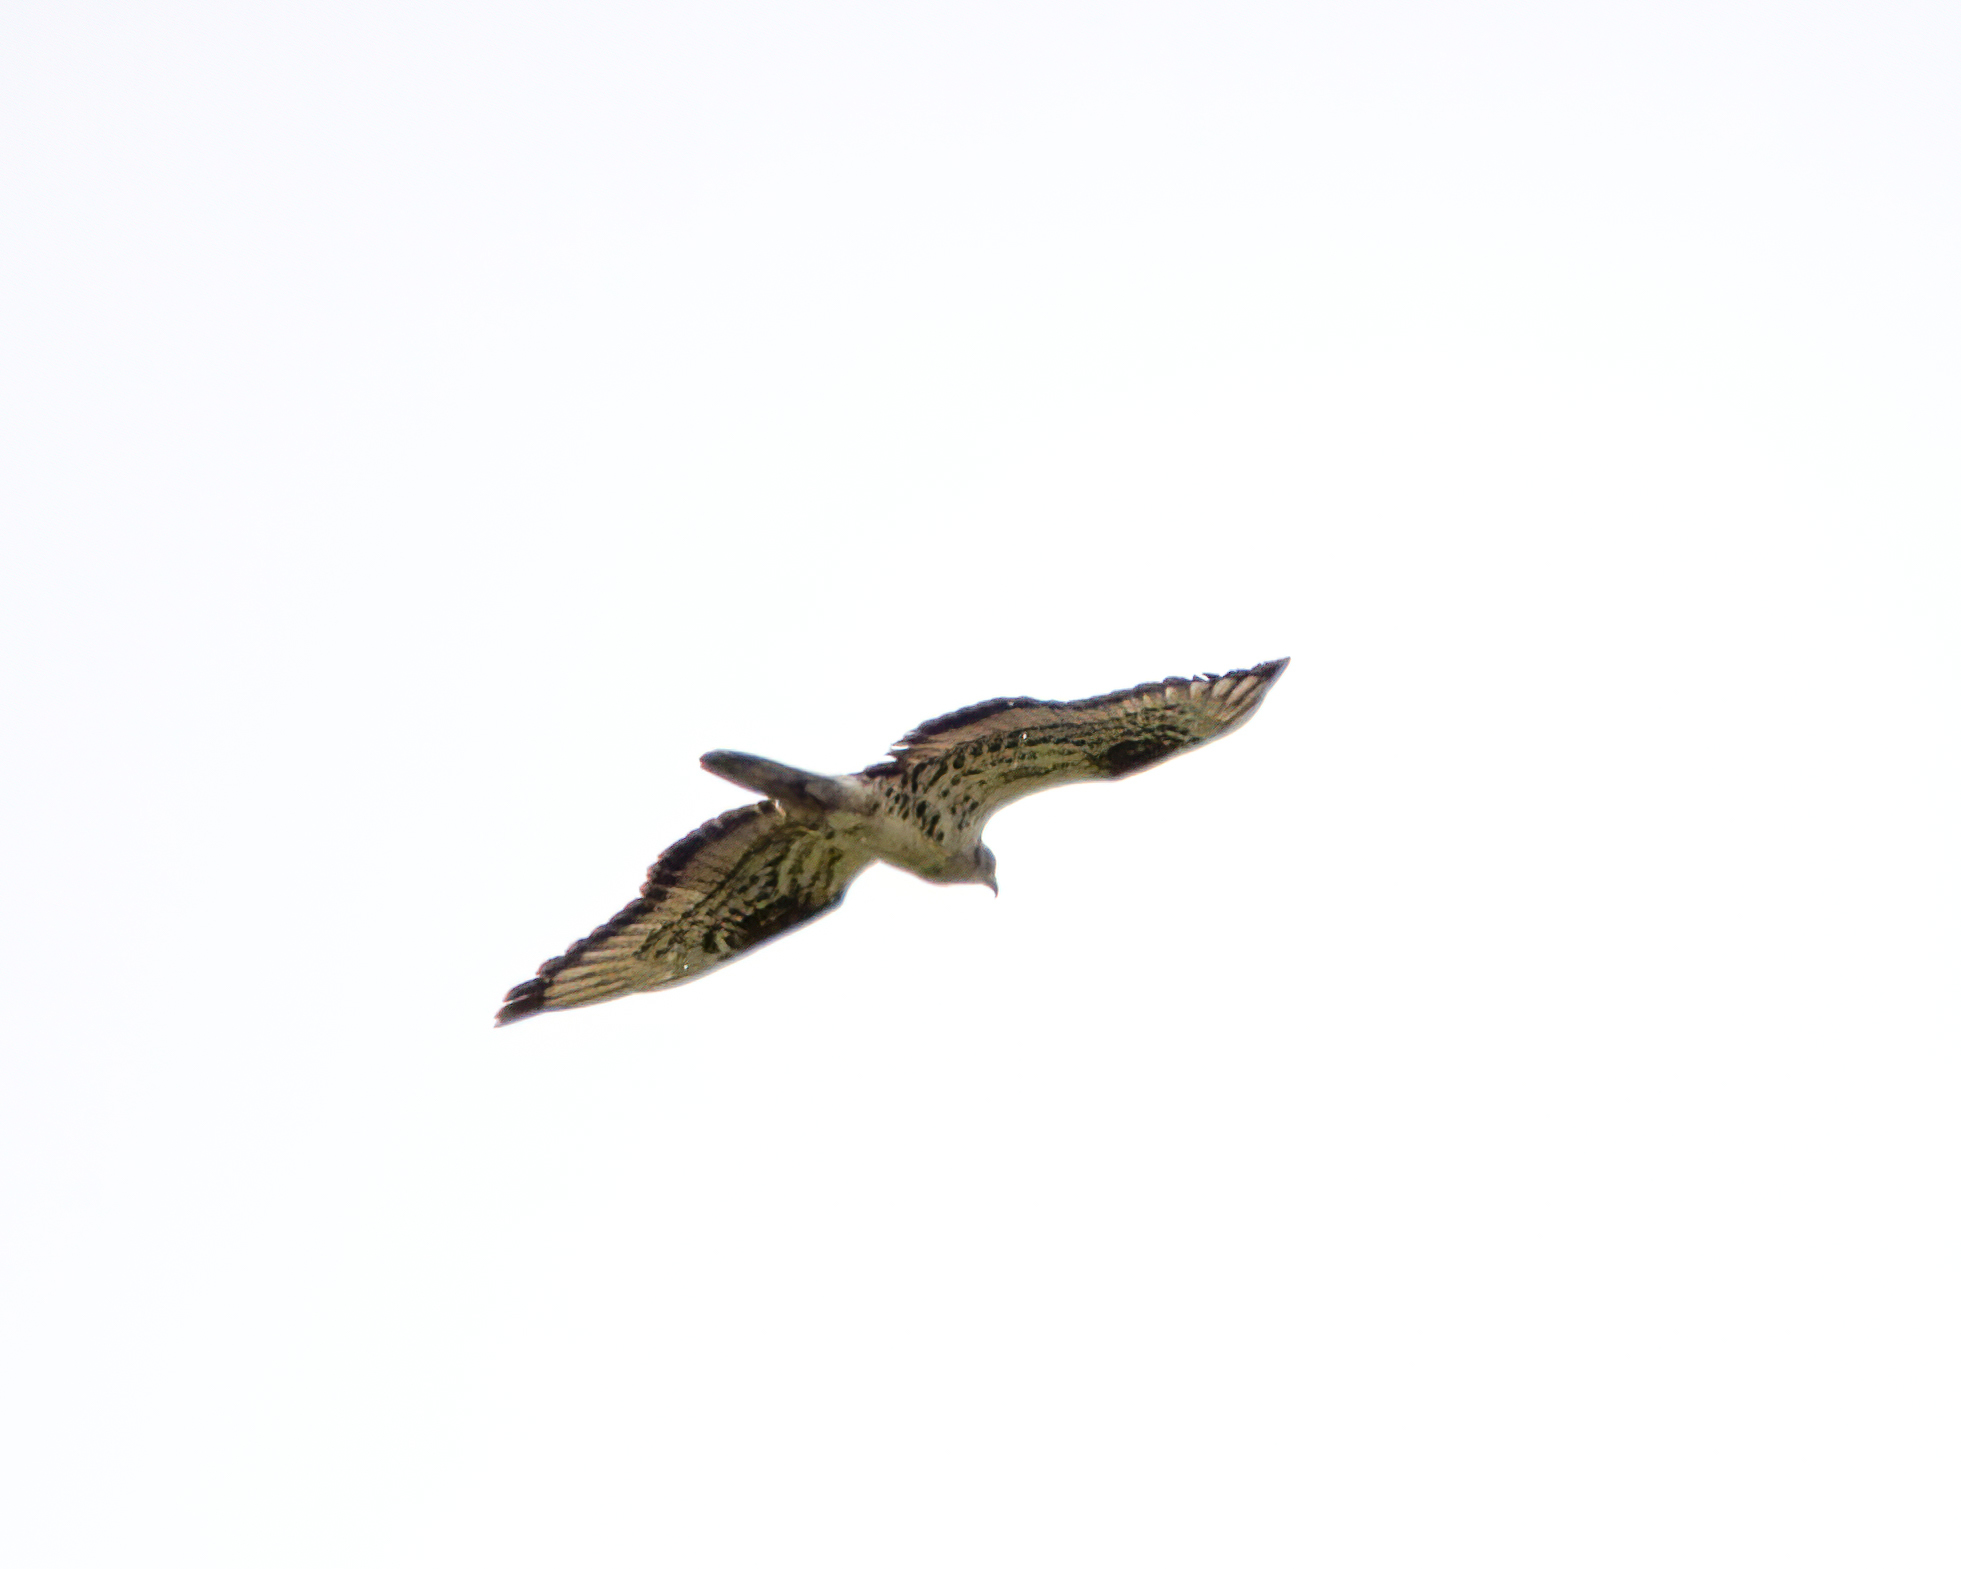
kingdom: Animalia
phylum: Chordata
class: Aves
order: Accipitriformes
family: Accipitridae
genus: Pernis
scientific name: Pernis apivorus
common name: European honey buzzard
